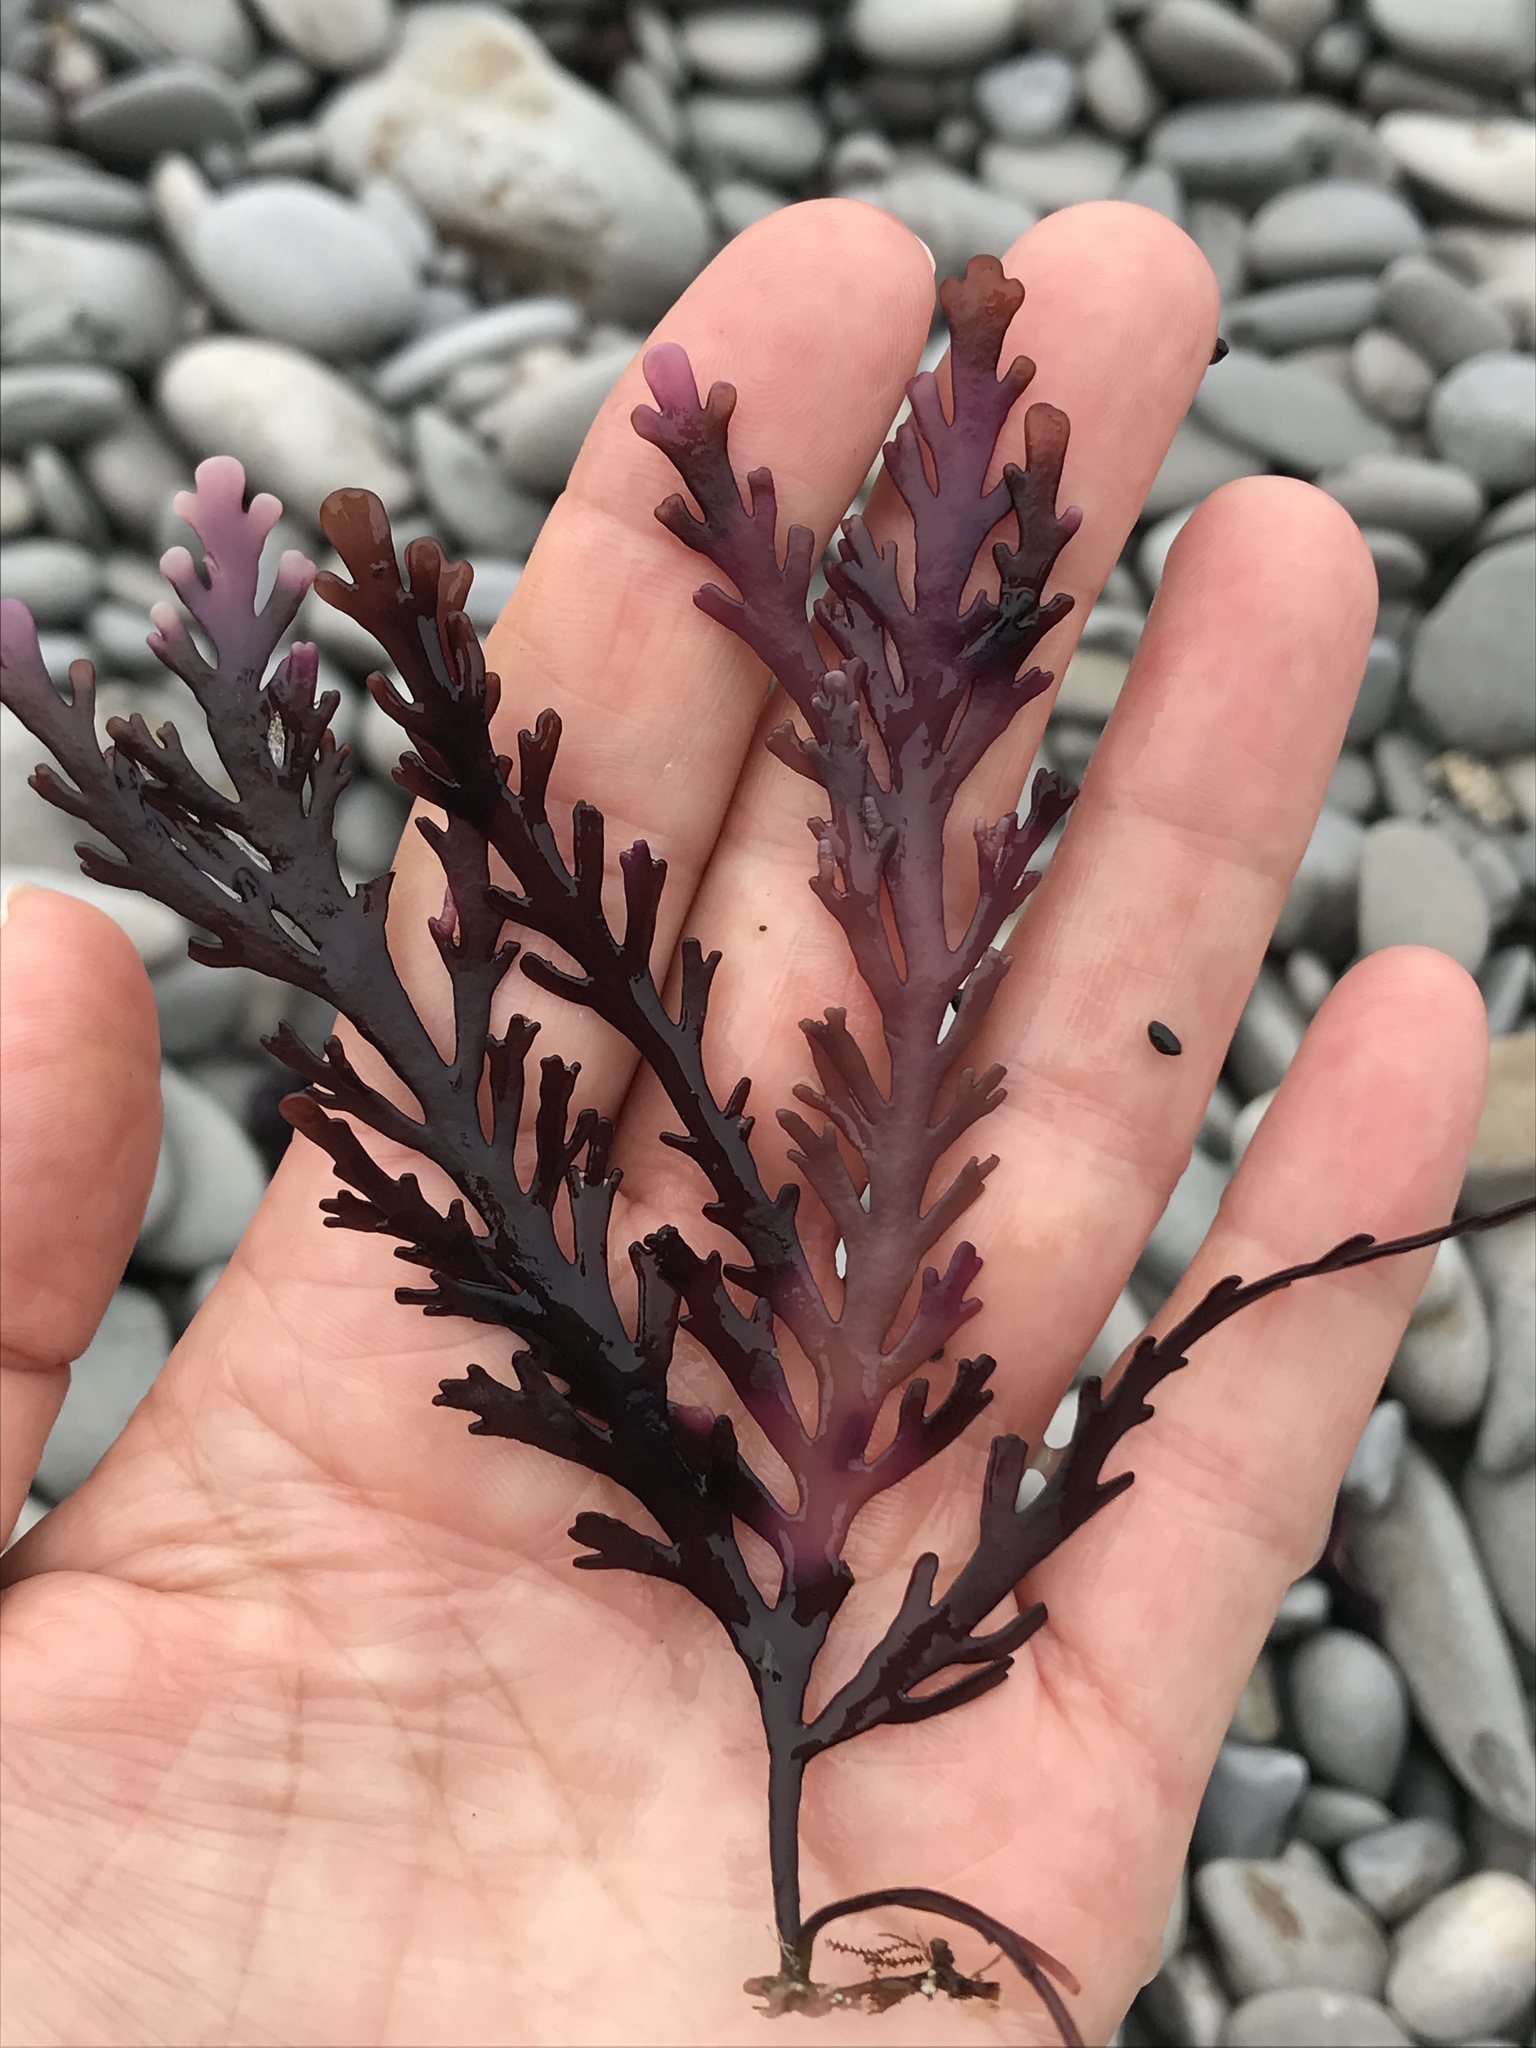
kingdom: Plantae
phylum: Rhodophyta
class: Florideophyceae
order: Ceramiales
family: Rhodomelaceae
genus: Osmundea
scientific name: Osmundea spectabilis
